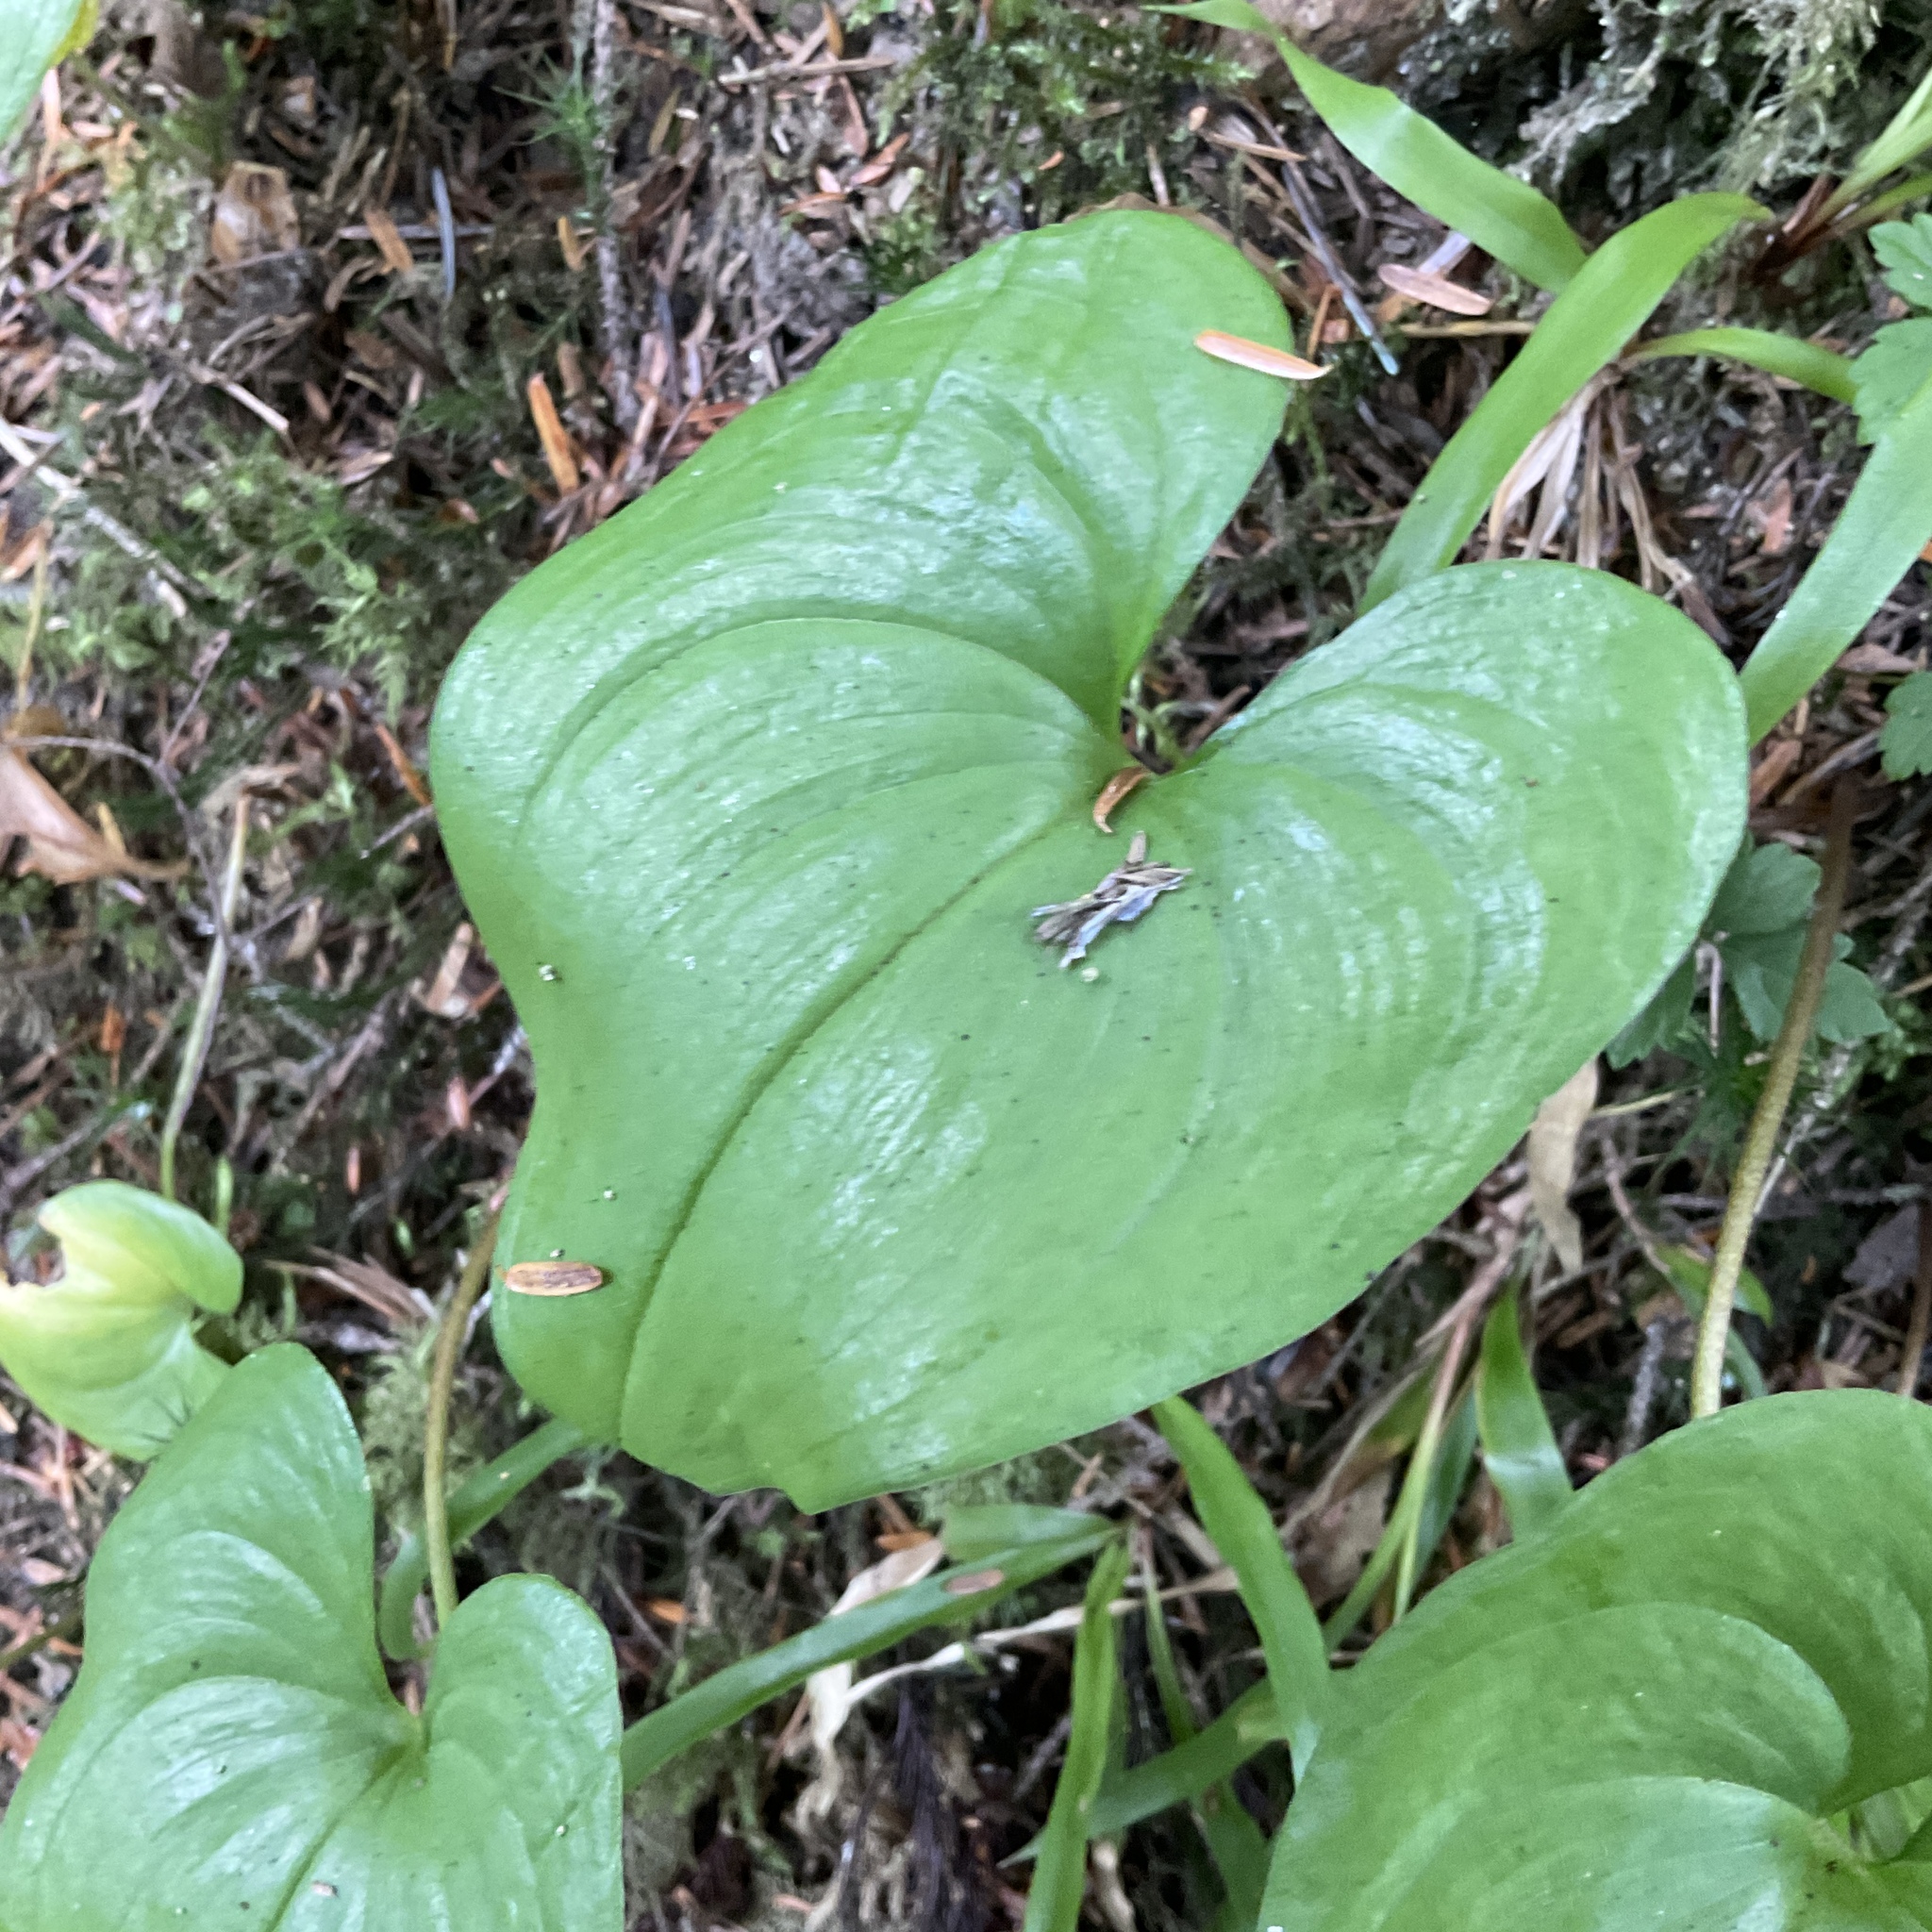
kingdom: Plantae
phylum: Tracheophyta
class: Liliopsida
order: Asparagales
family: Asparagaceae
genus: Maianthemum
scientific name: Maianthemum dilatatum
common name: False lily-of-the-valley
